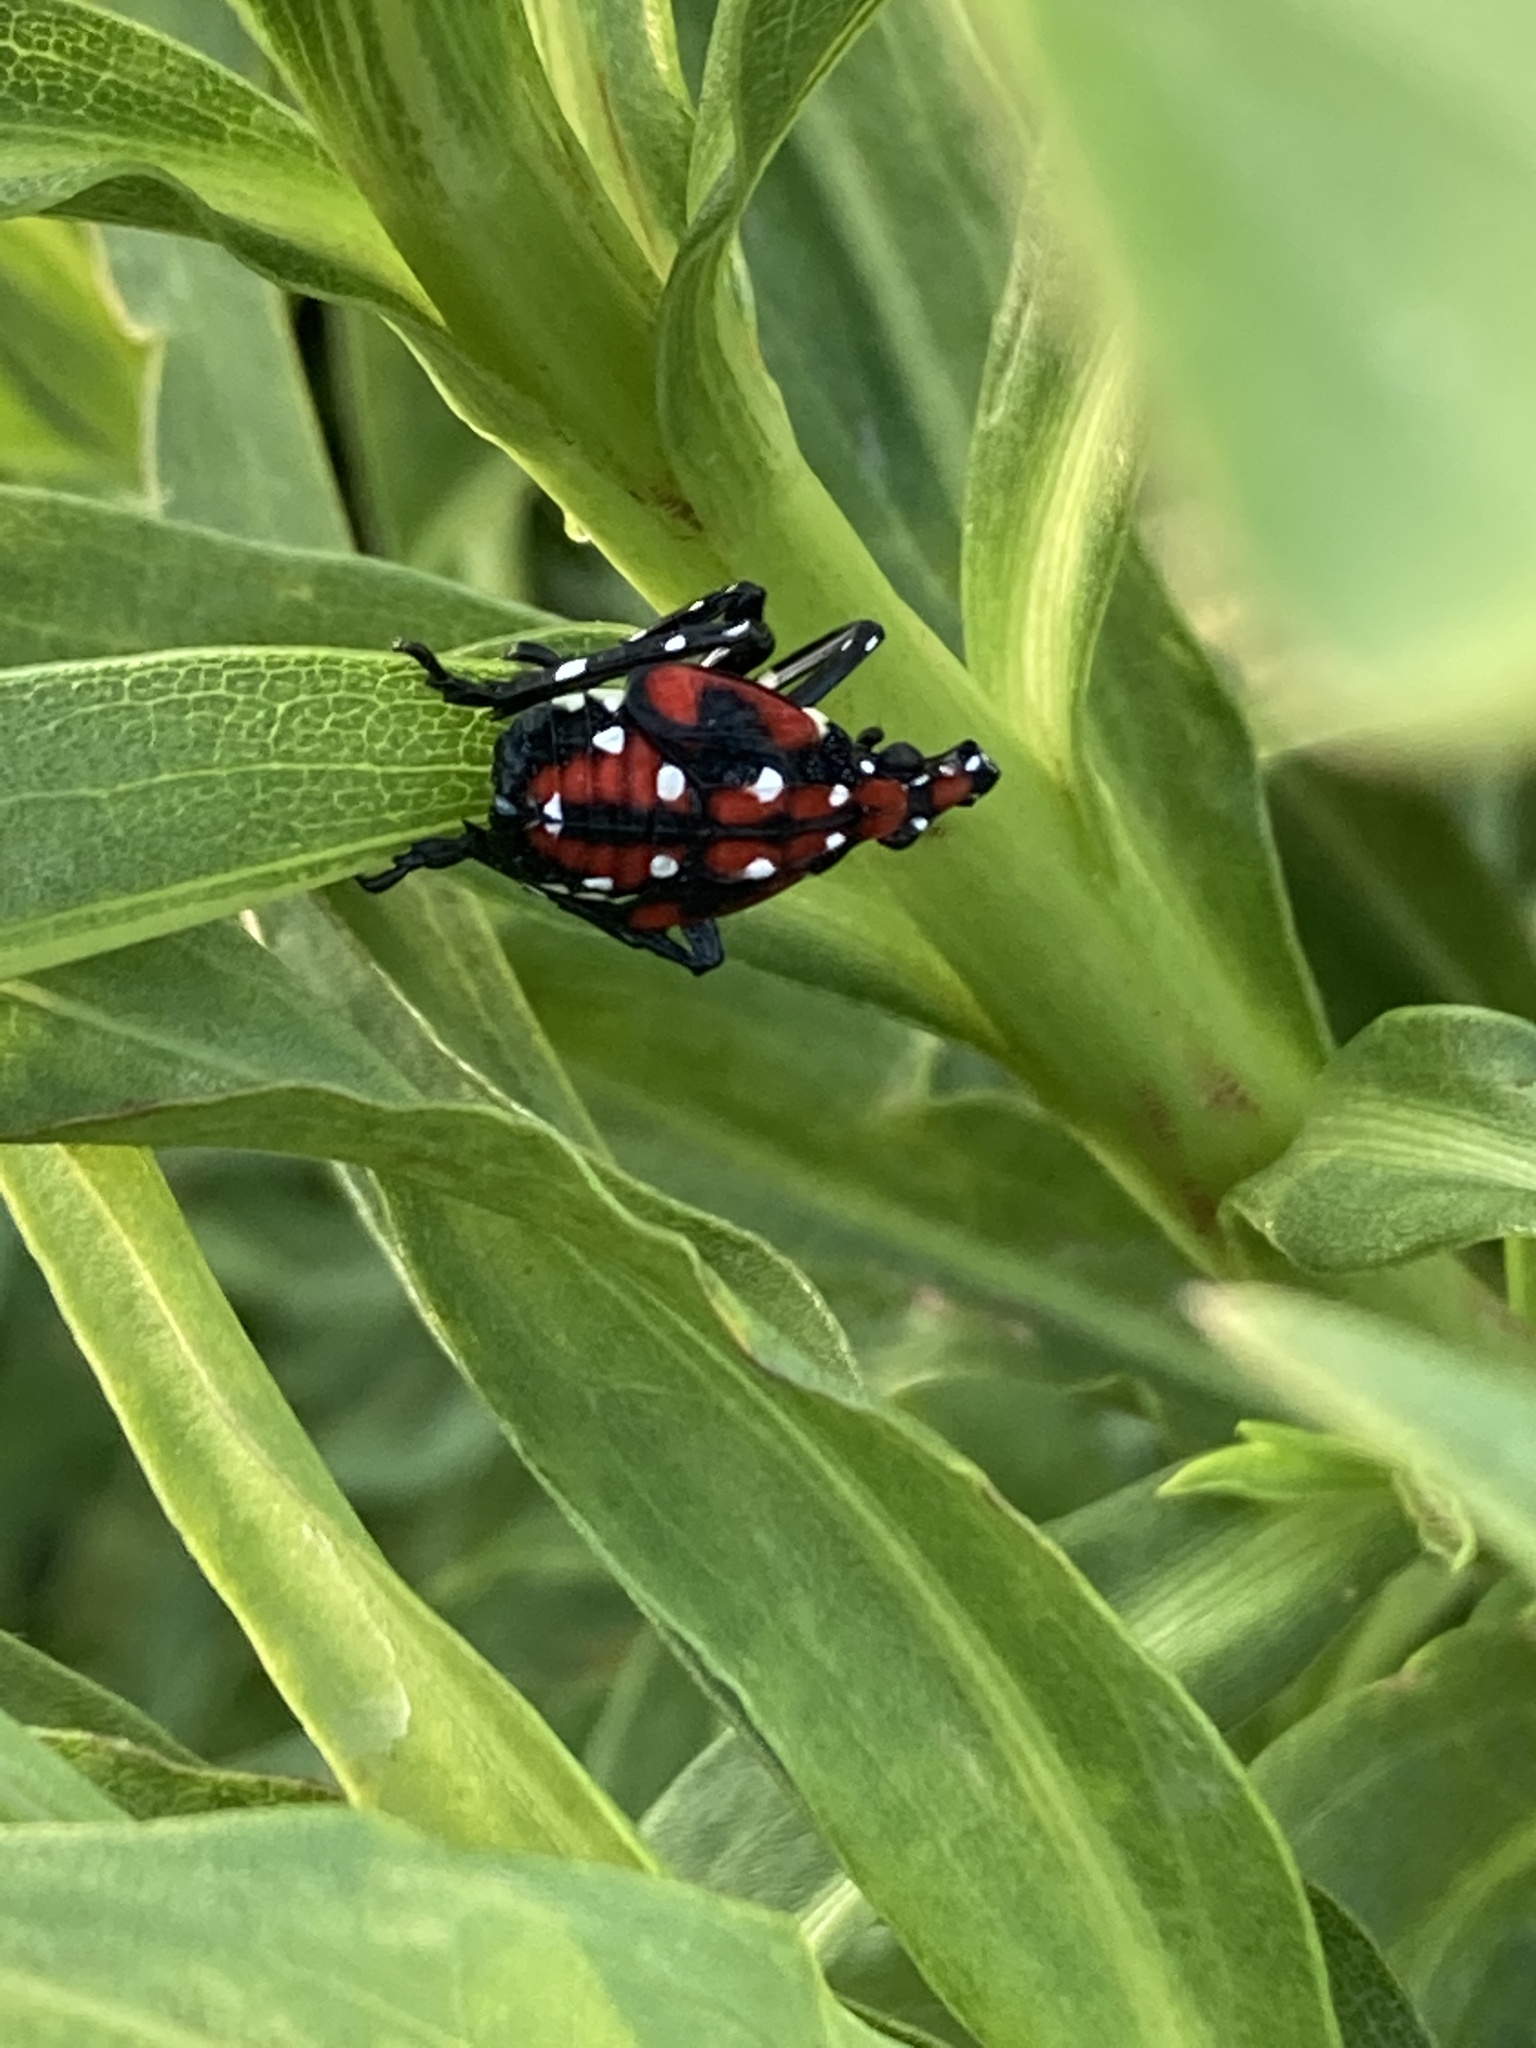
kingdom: Animalia
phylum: Arthropoda
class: Insecta
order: Hemiptera
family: Fulgoridae
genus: Lycorma
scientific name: Lycorma delicatula
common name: Spotted lanternfly
